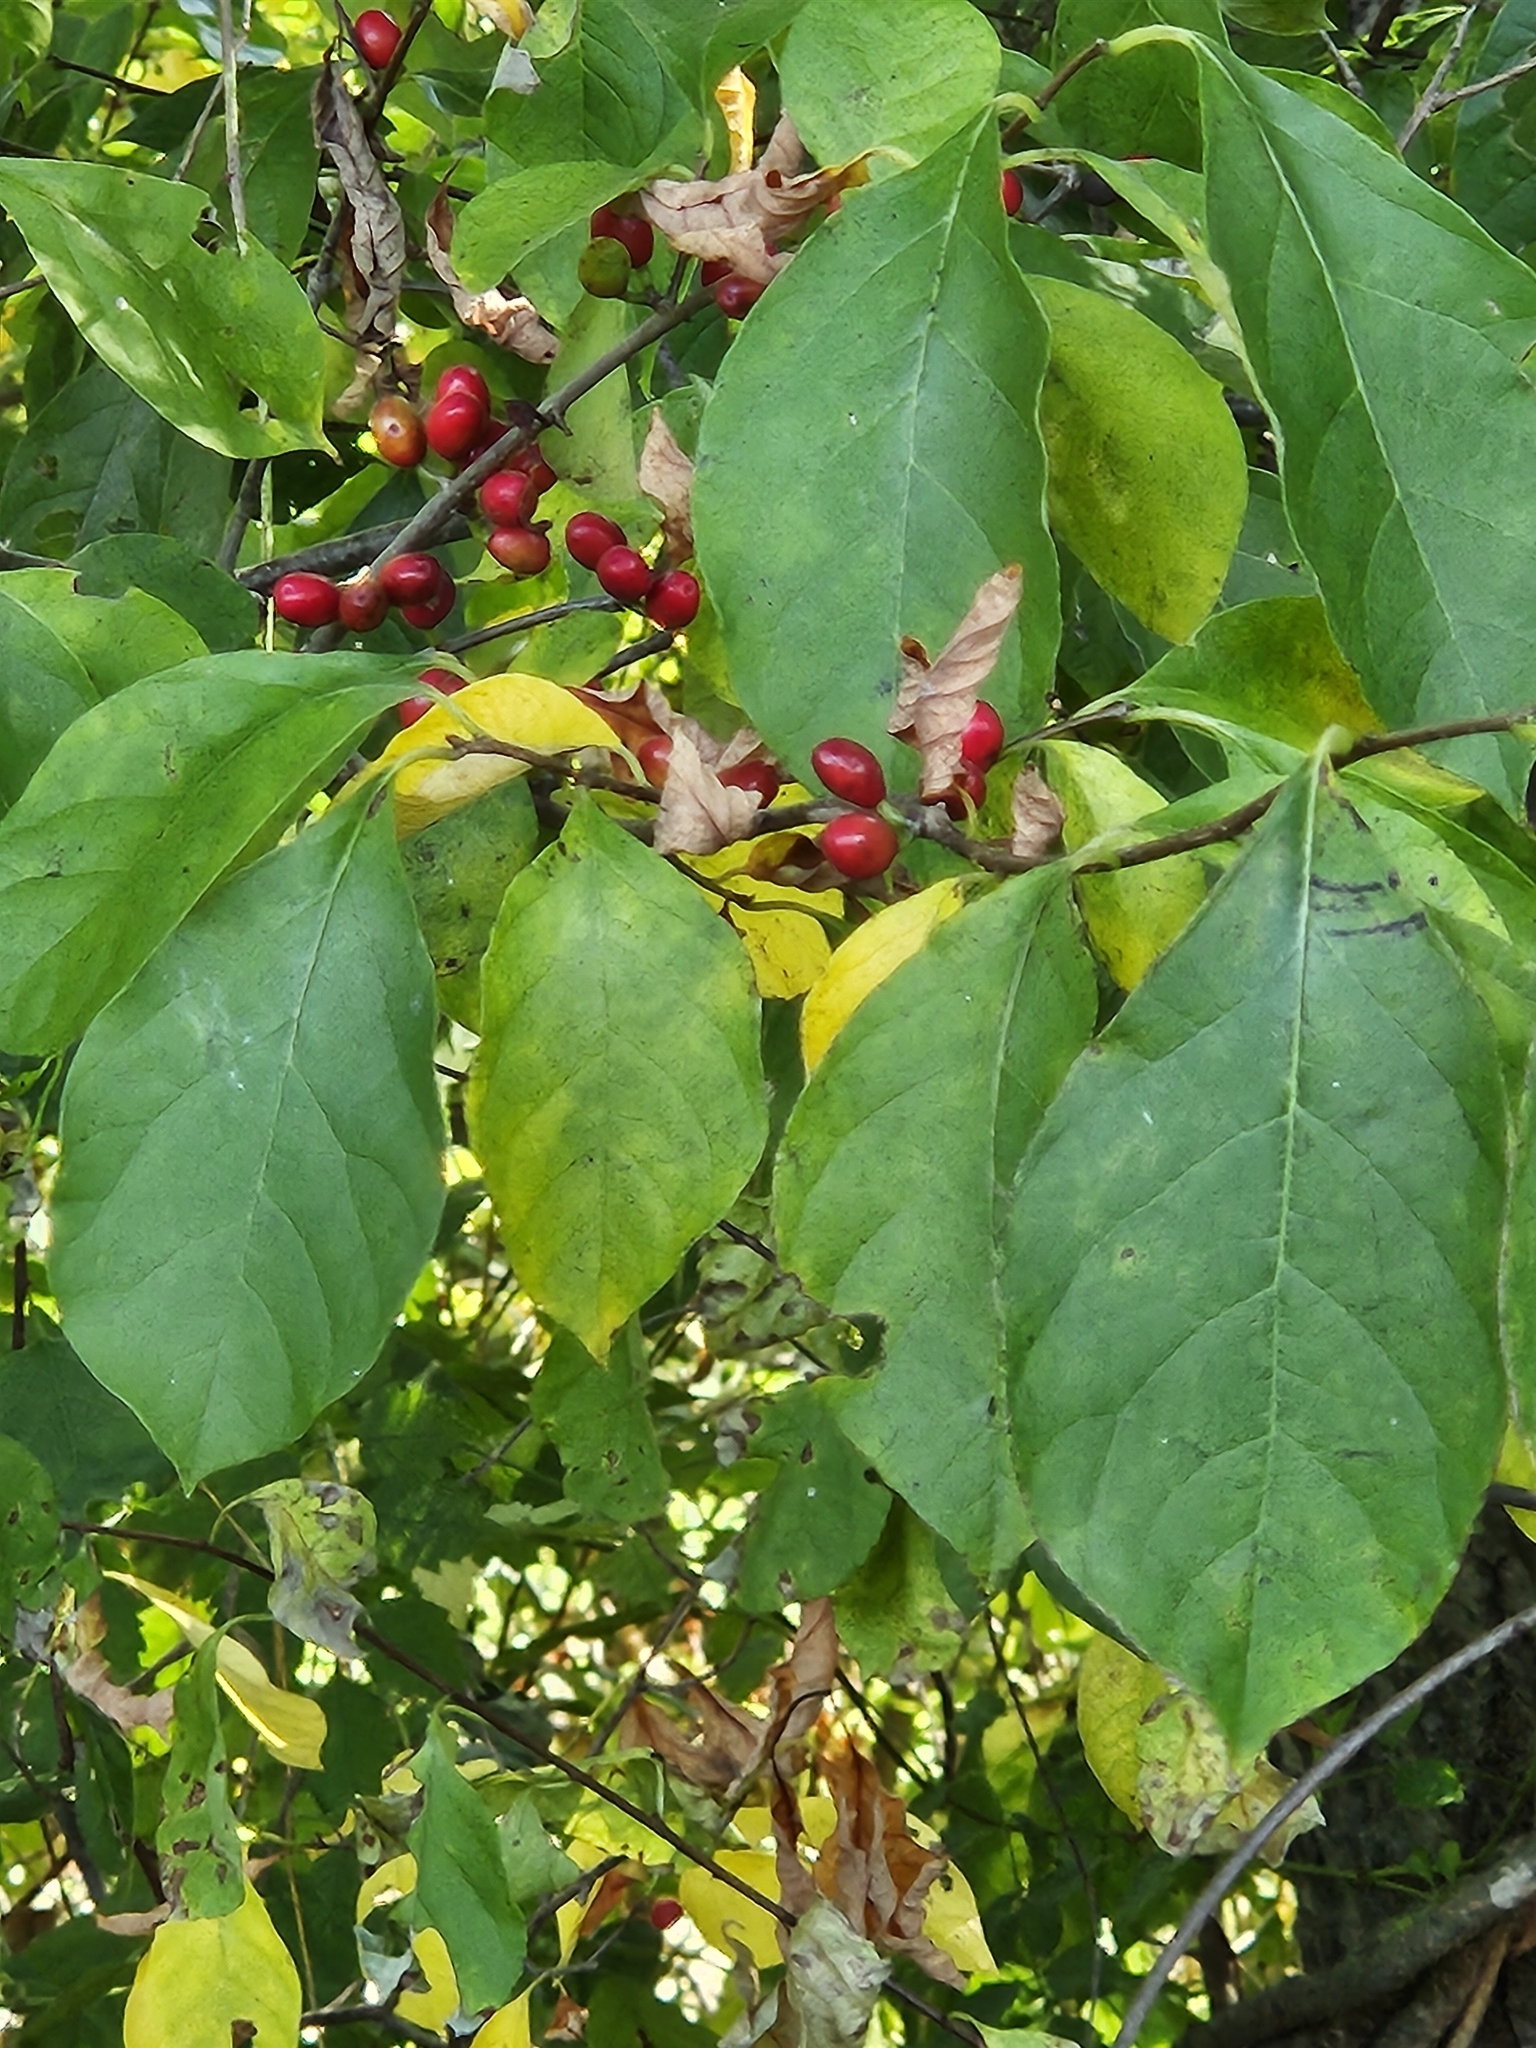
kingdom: Plantae
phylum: Tracheophyta
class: Magnoliopsida
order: Laurales
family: Lauraceae
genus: Lindera
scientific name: Lindera benzoin
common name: Spicebush
